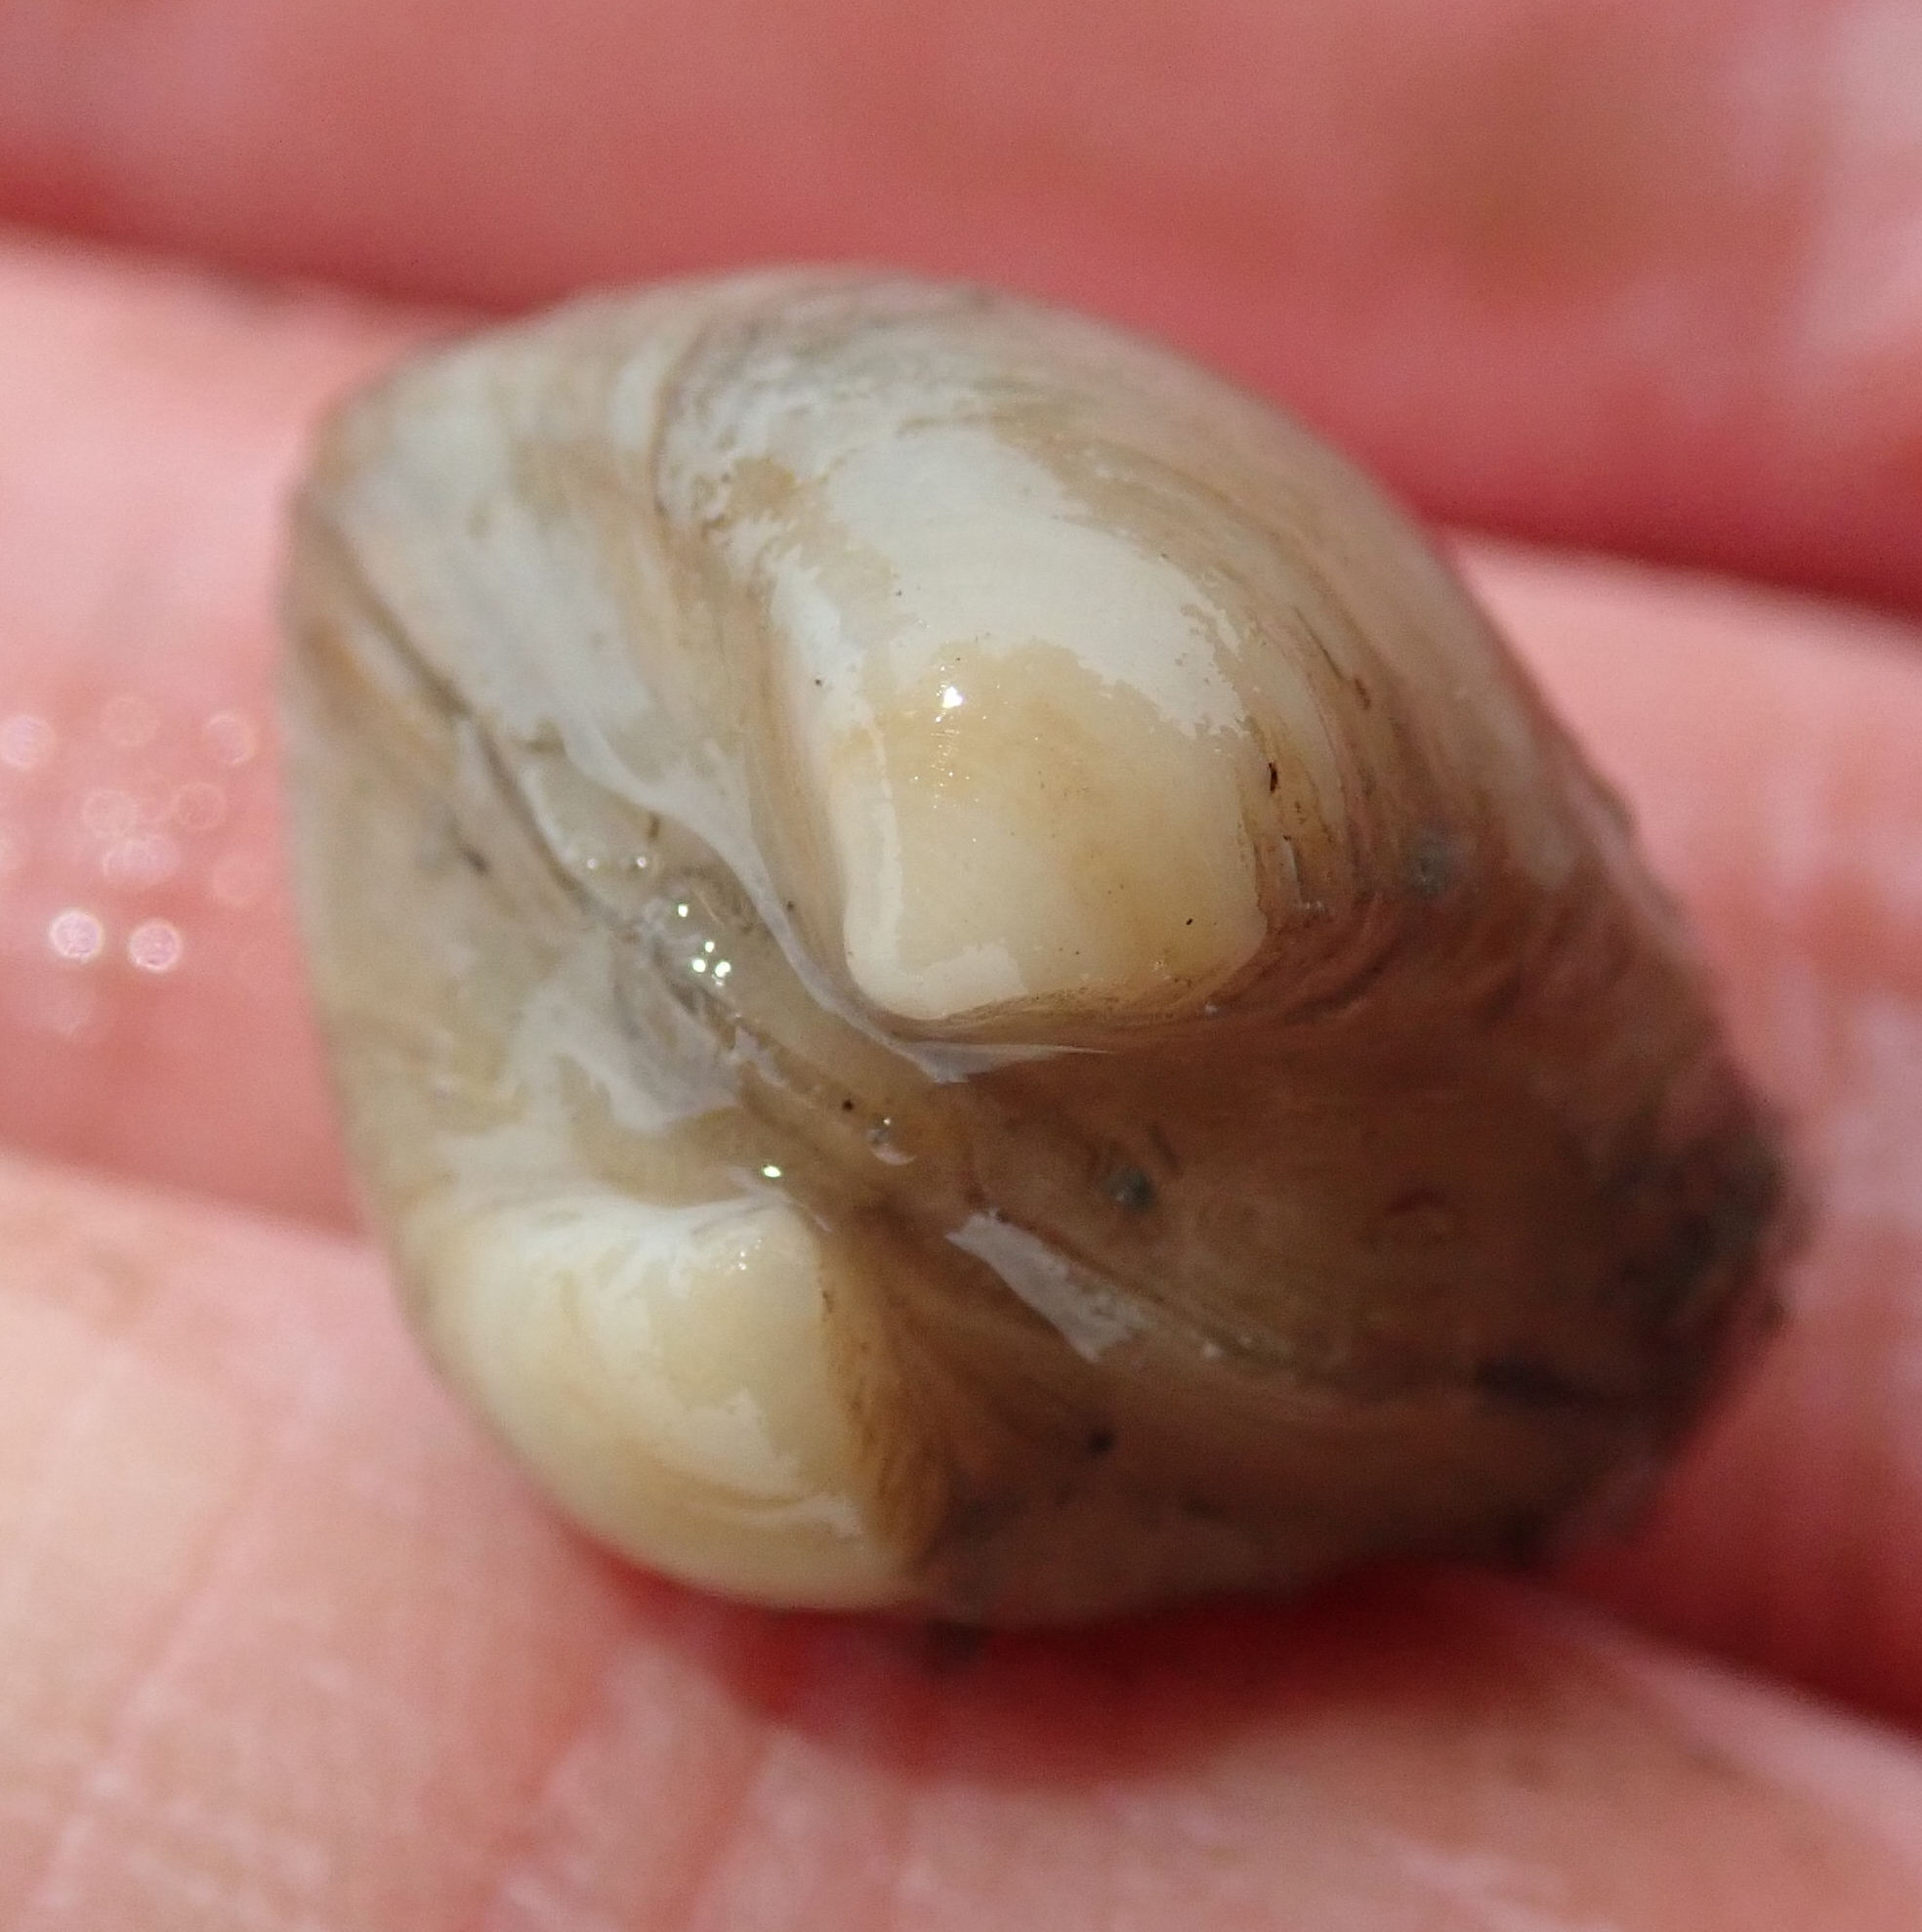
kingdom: Animalia
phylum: Mollusca
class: Bivalvia
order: Venerida
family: Mactridae
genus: Rangia
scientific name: Rangia cuneata
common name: Atlantic rangia
